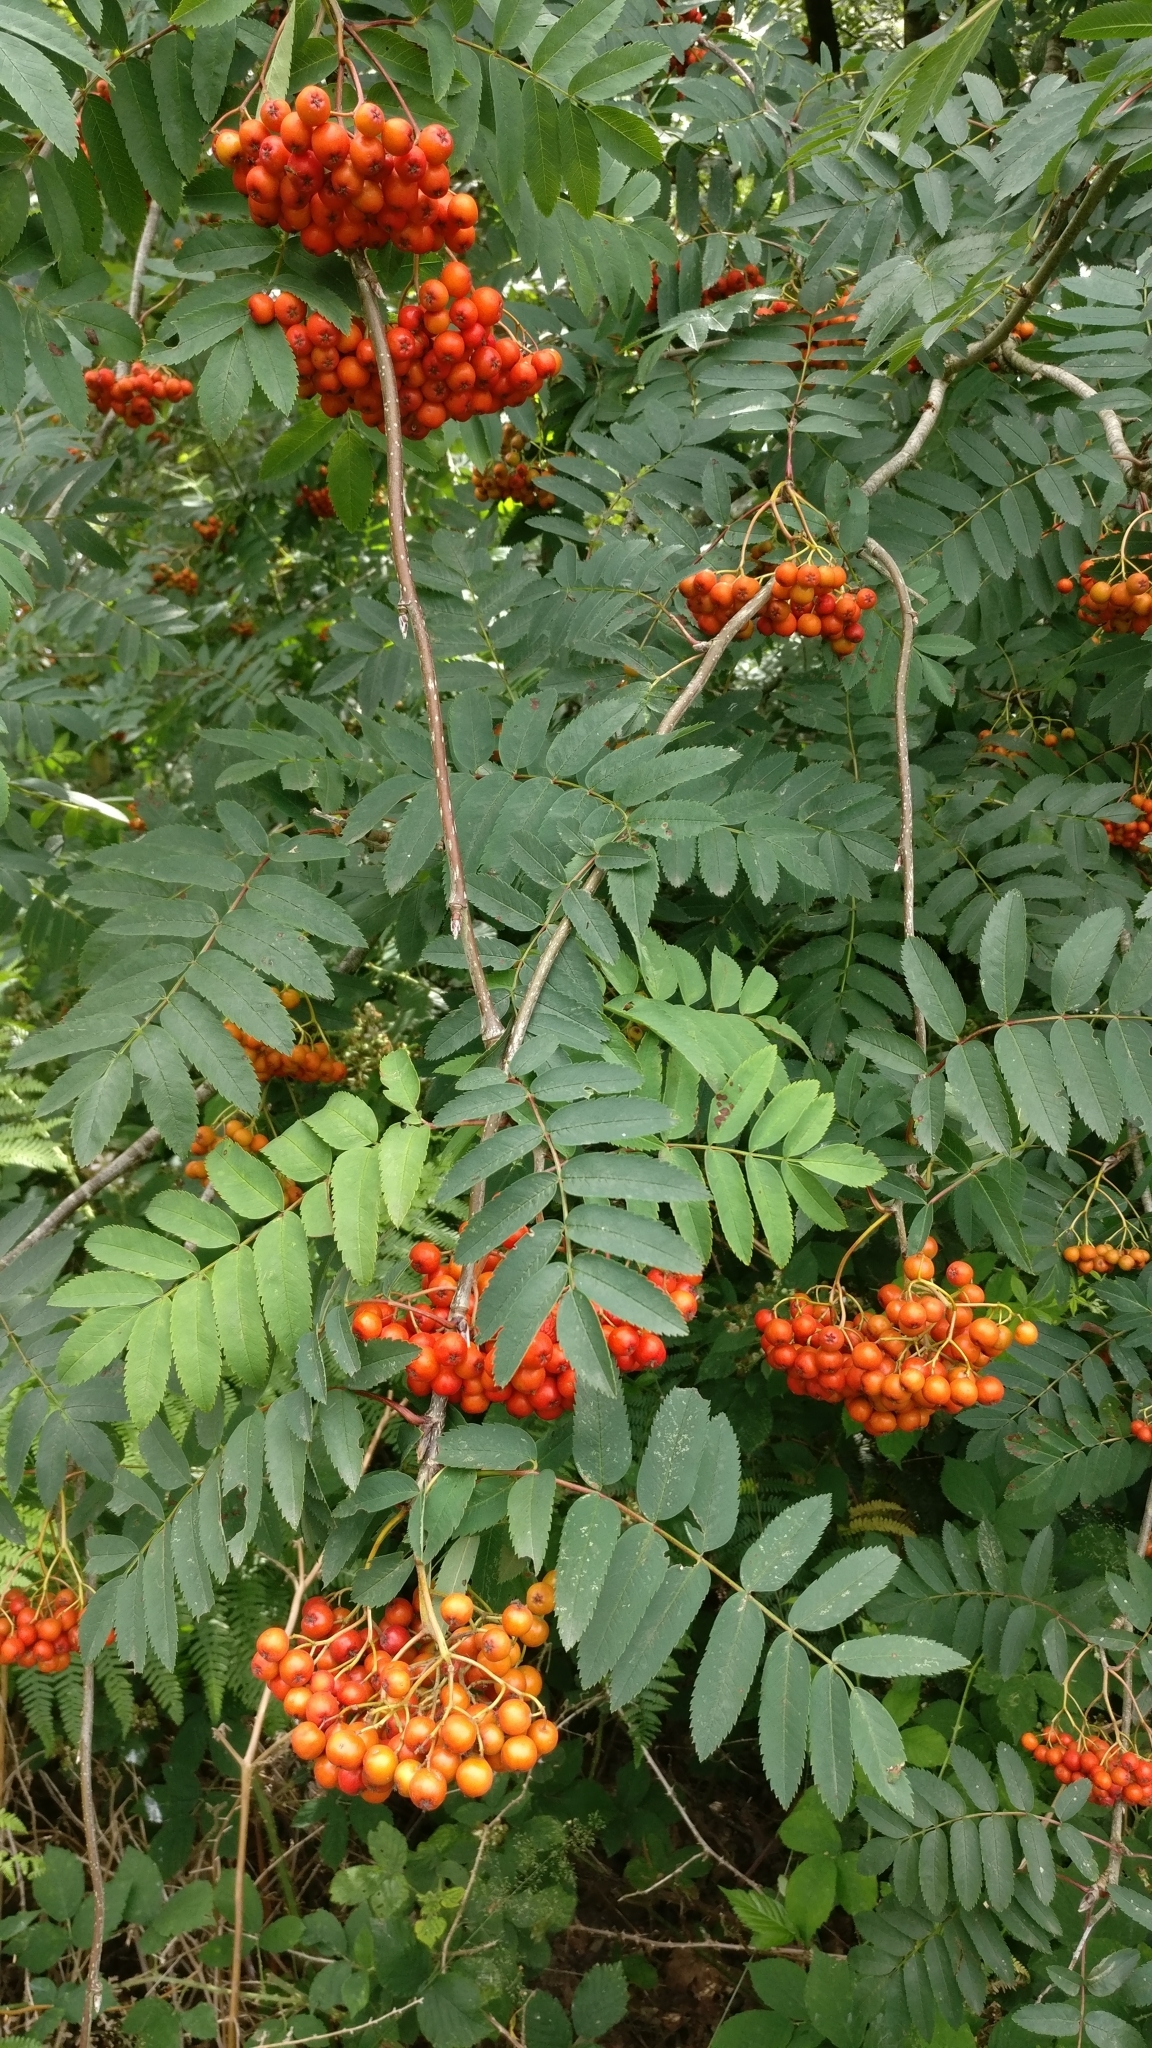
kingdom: Plantae
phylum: Tracheophyta
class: Magnoliopsida
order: Rosales
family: Rosaceae
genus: Sorbus
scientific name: Sorbus aucuparia
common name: Rowan
